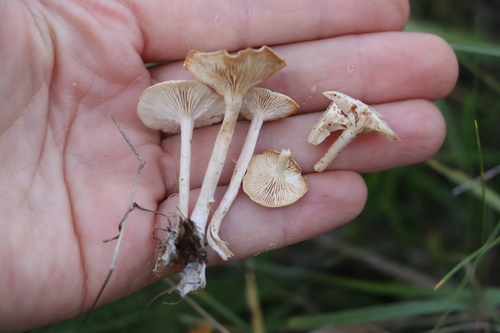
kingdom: Fungi
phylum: Basidiomycota
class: Agaricomycetes
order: Agaricales
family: Tricholomataceae
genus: Clitocybe
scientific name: Clitocybe
